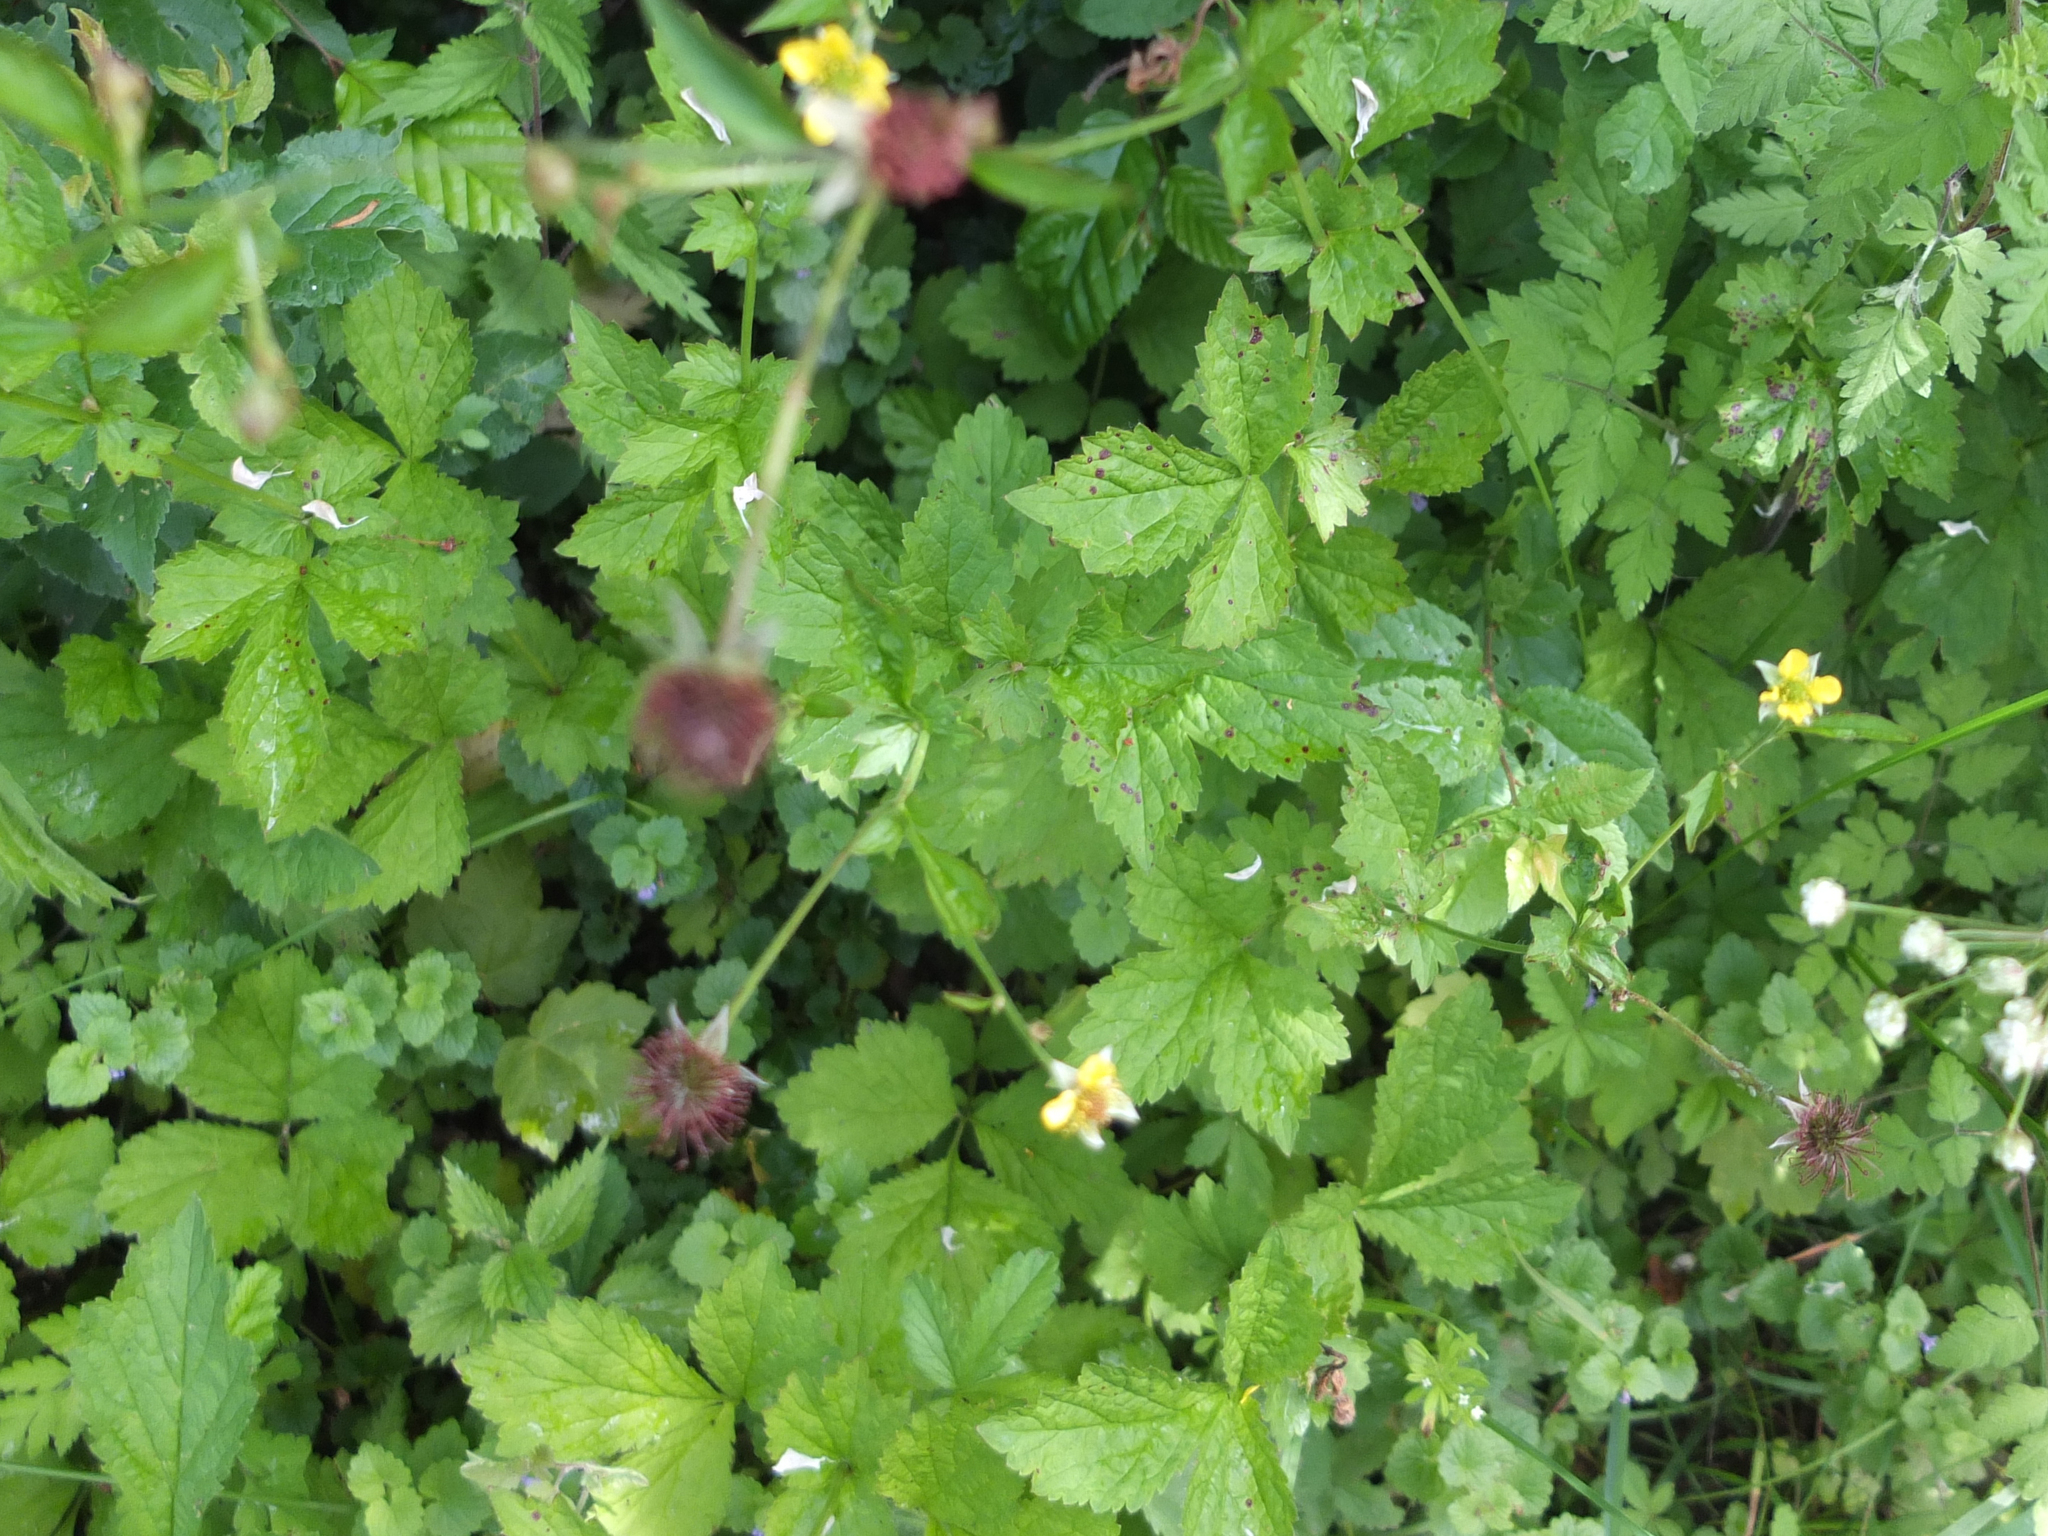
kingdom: Plantae
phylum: Tracheophyta
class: Magnoliopsida
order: Rosales
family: Rosaceae
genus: Geum
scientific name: Geum urbanum
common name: Wood avens
